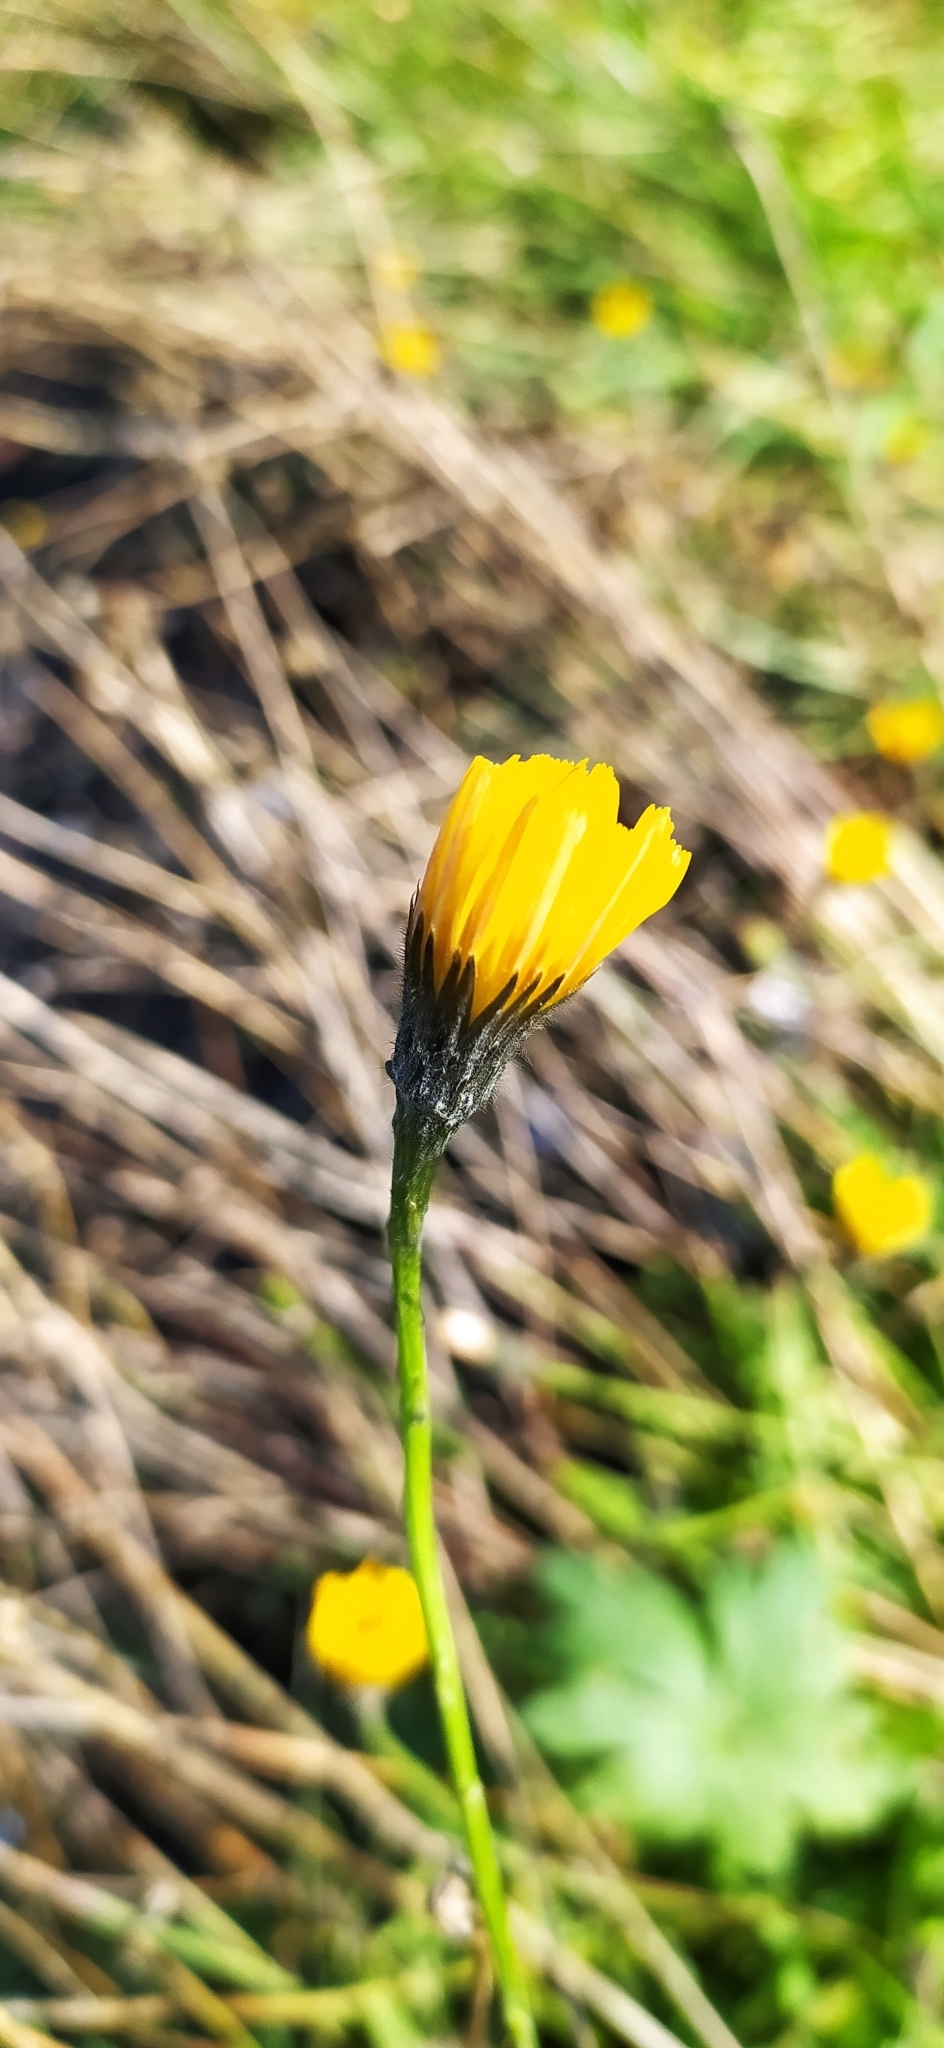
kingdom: Plantae
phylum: Tracheophyta
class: Magnoliopsida
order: Asterales
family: Asteraceae
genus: Scorzoneroides
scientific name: Scorzoneroides autumnalis
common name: Autumn hawkbit
